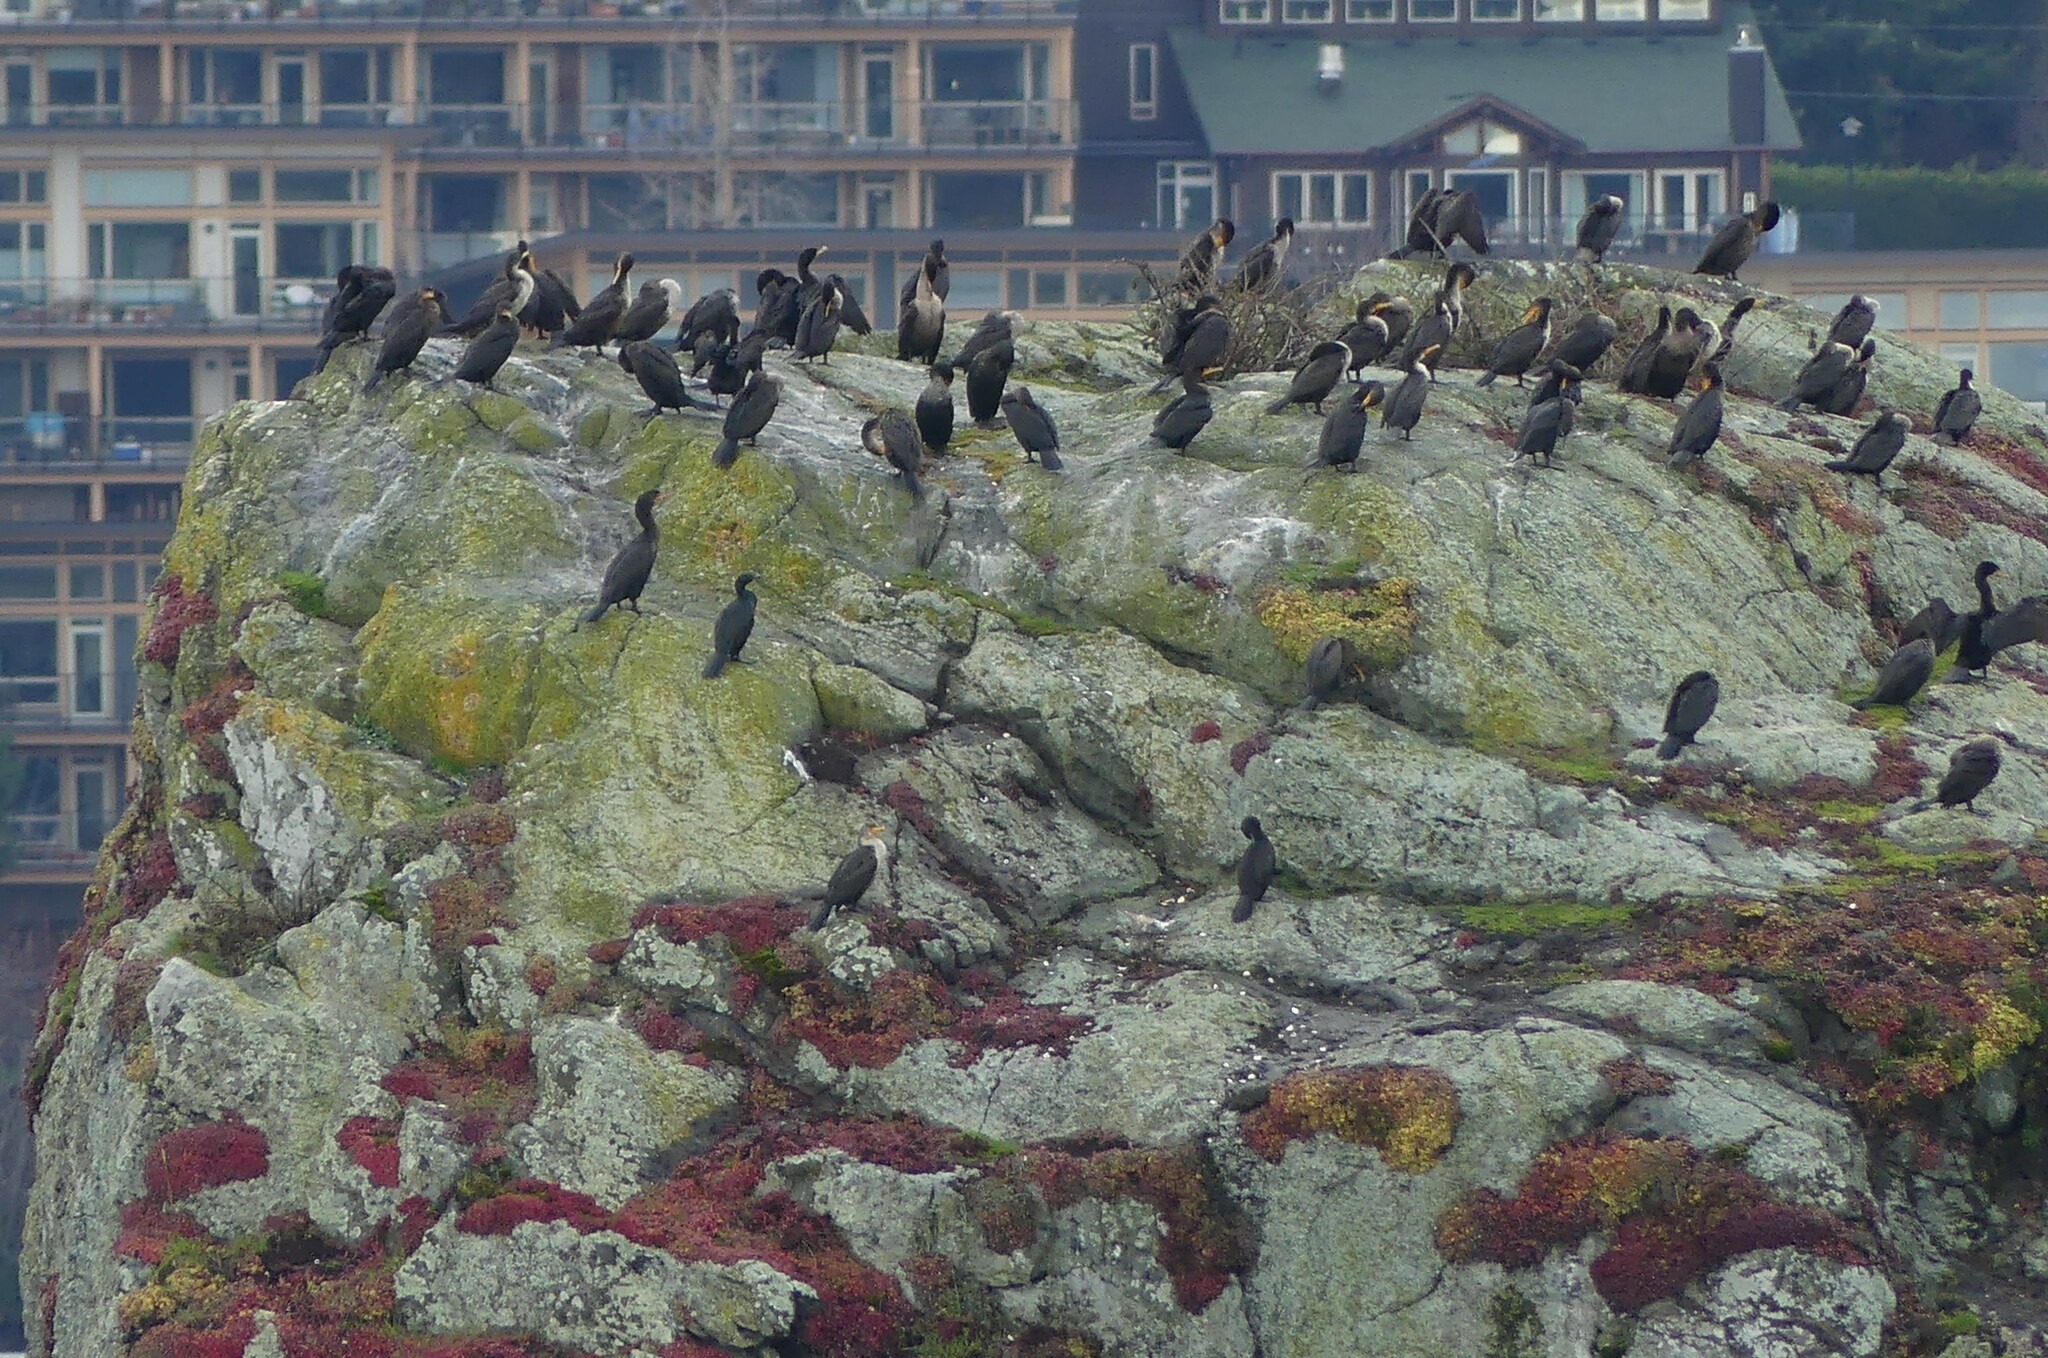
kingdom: Animalia
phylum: Chordata
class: Aves
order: Suliformes
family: Phalacrocoracidae
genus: Phalacrocorax
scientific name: Phalacrocorax auritus
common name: Double-crested cormorant
